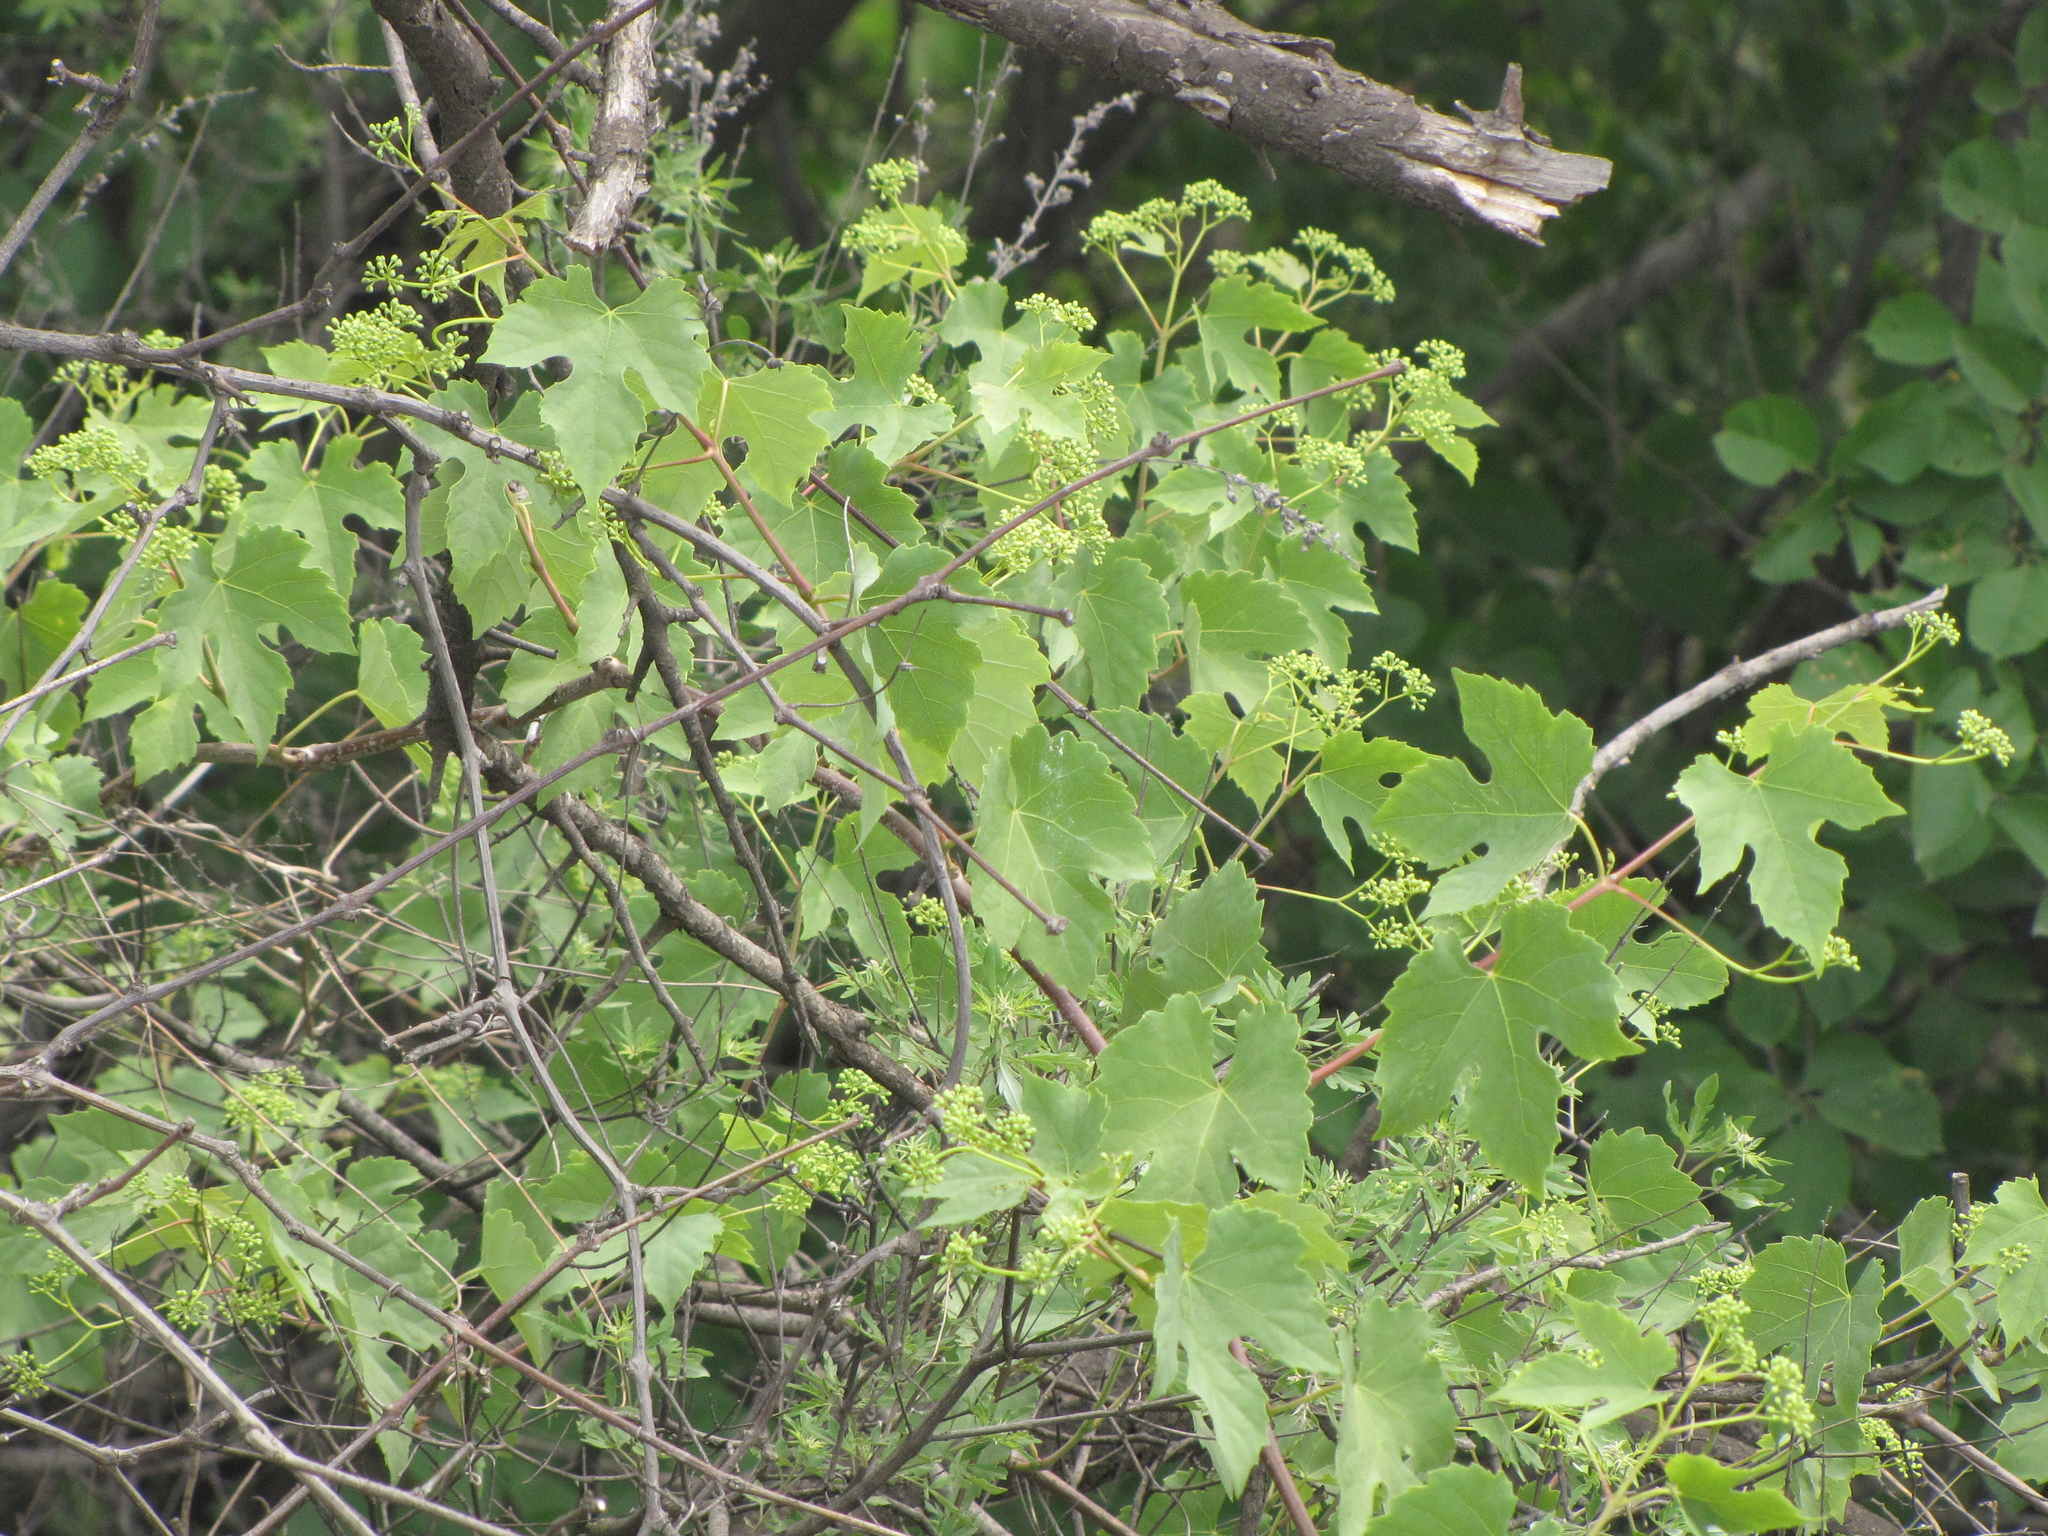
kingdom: Plantae
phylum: Tracheophyta
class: Magnoliopsida
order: Vitales
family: Vitaceae
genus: Ampelopsis
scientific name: Ampelopsis humulifolia
